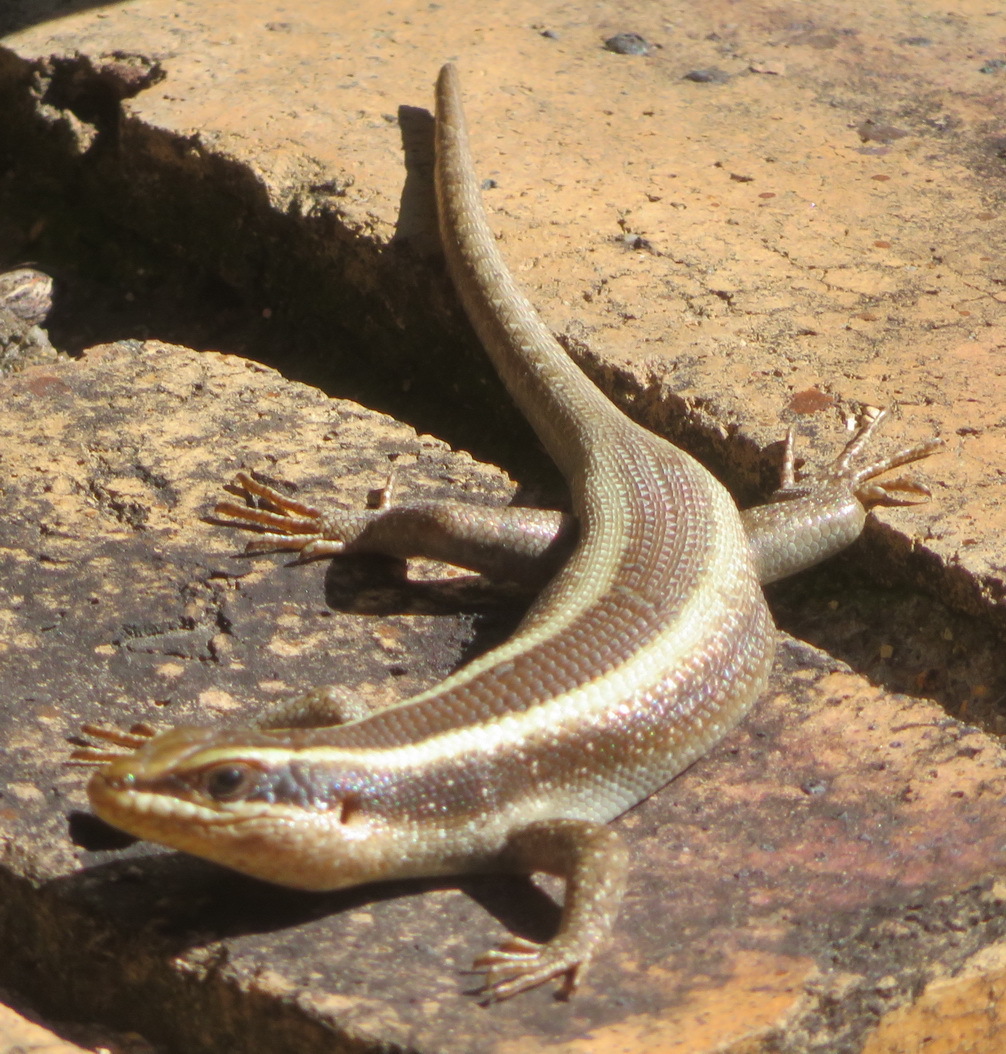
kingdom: Animalia
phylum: Chordata
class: Squamata
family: Scincidae
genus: Trachylepis
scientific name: Trachylepis striata
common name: African striped mabuya
